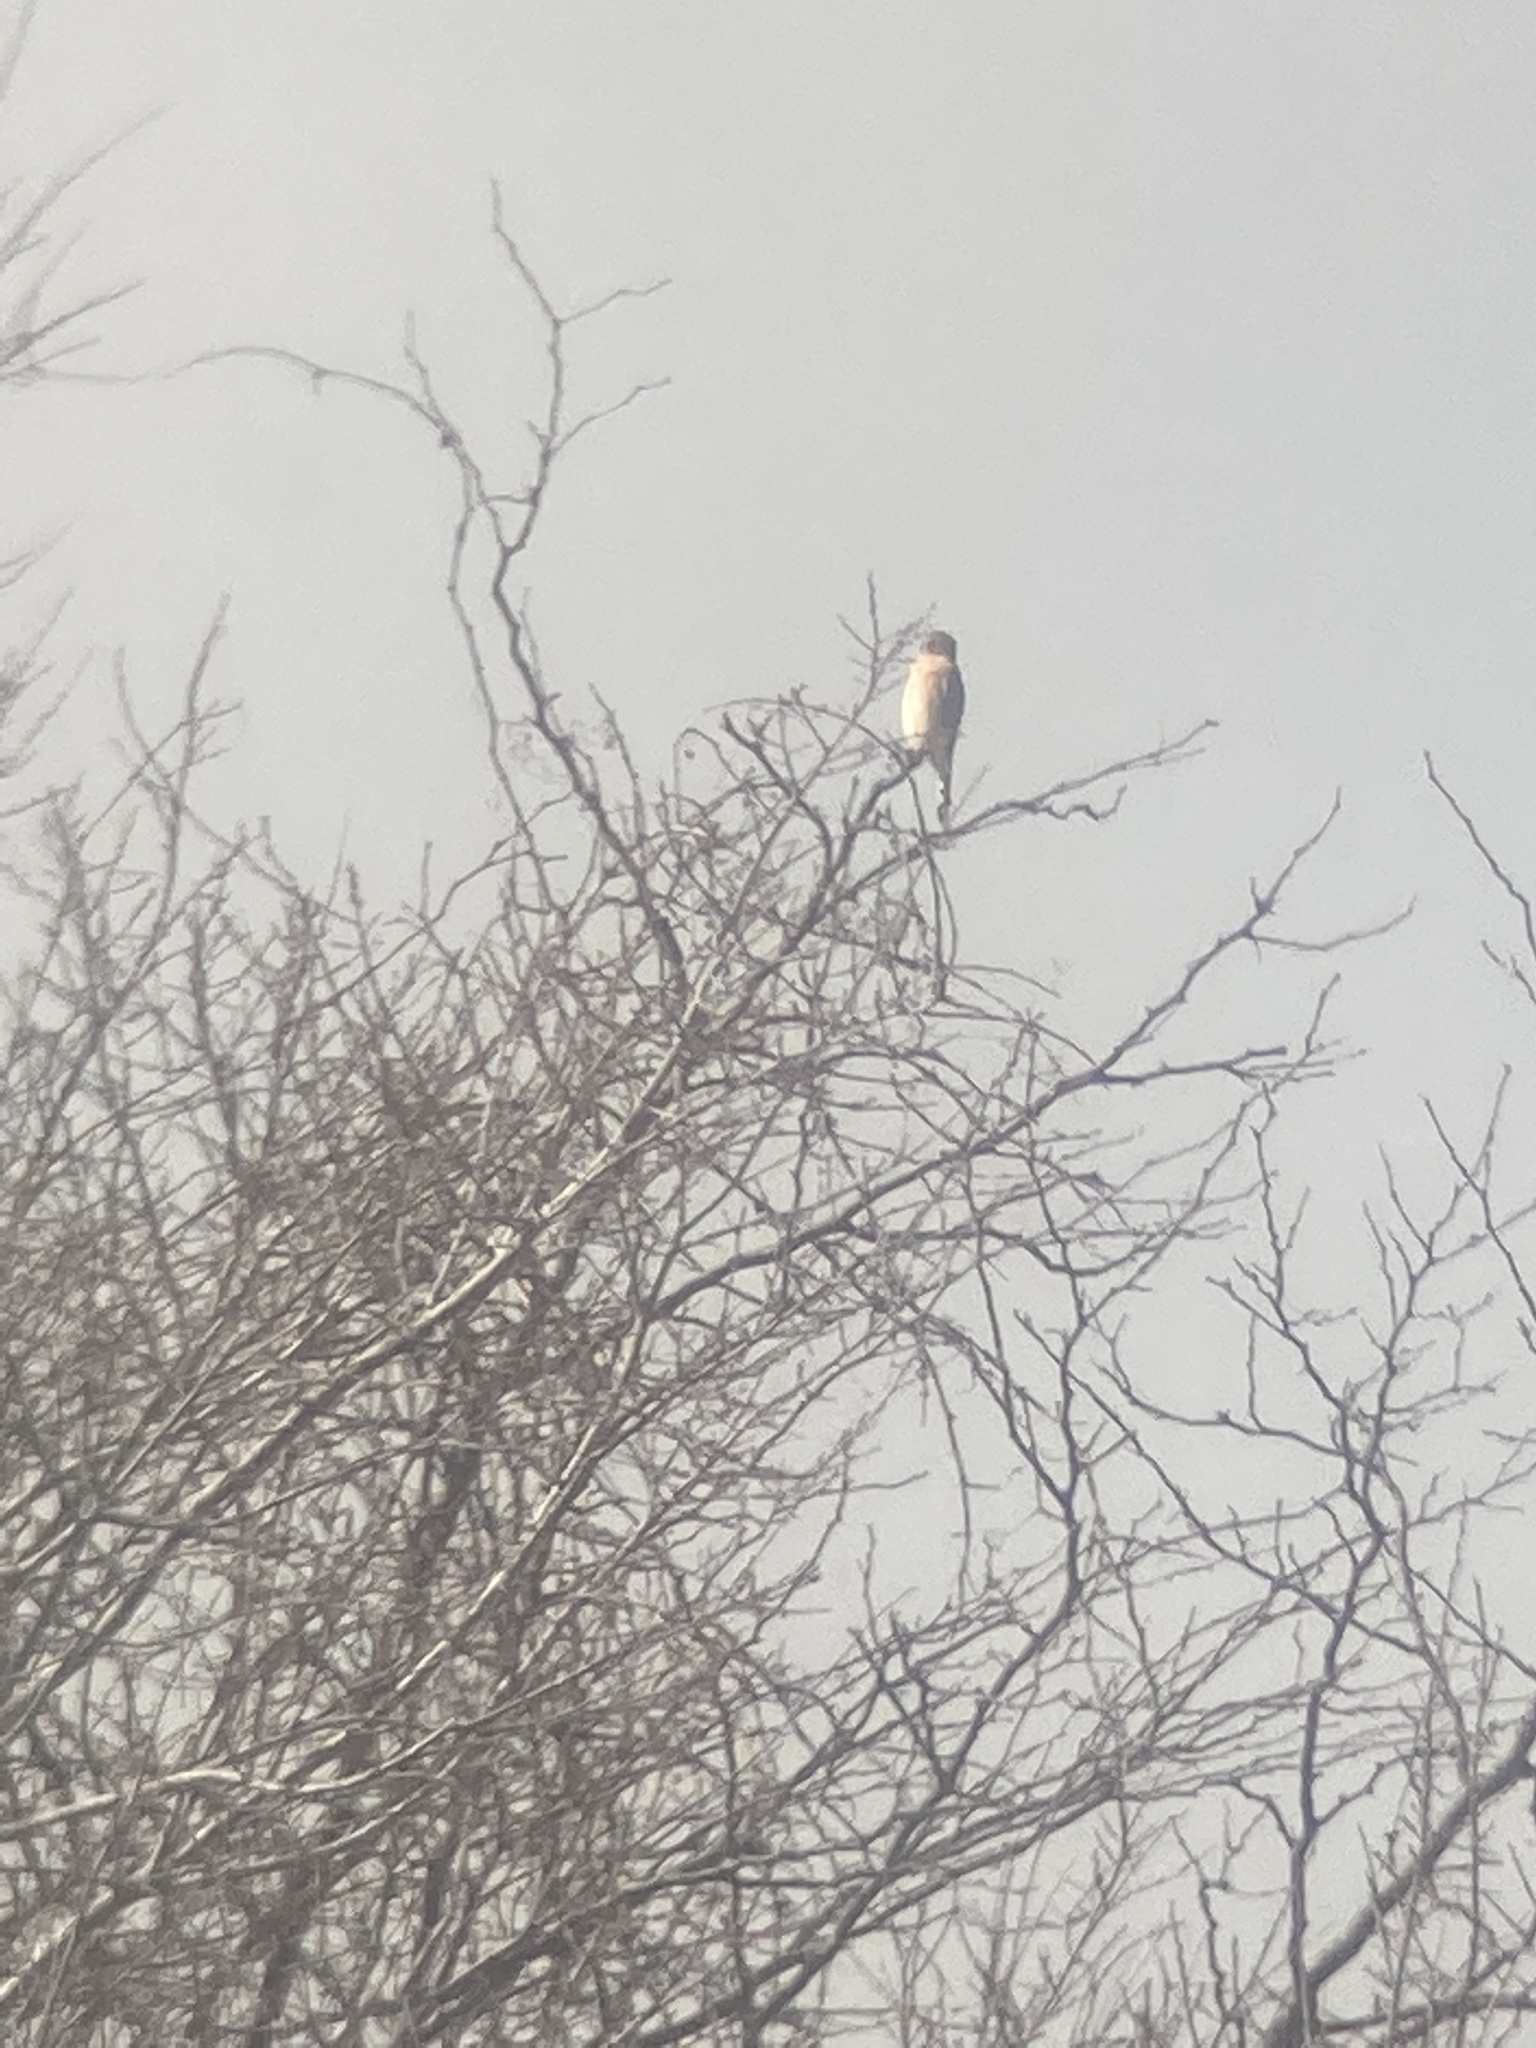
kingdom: Animalia
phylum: Chordata
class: Aves
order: Falconiformes
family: Falconidae
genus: Falco
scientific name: Falco sparverius
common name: American kestrel
